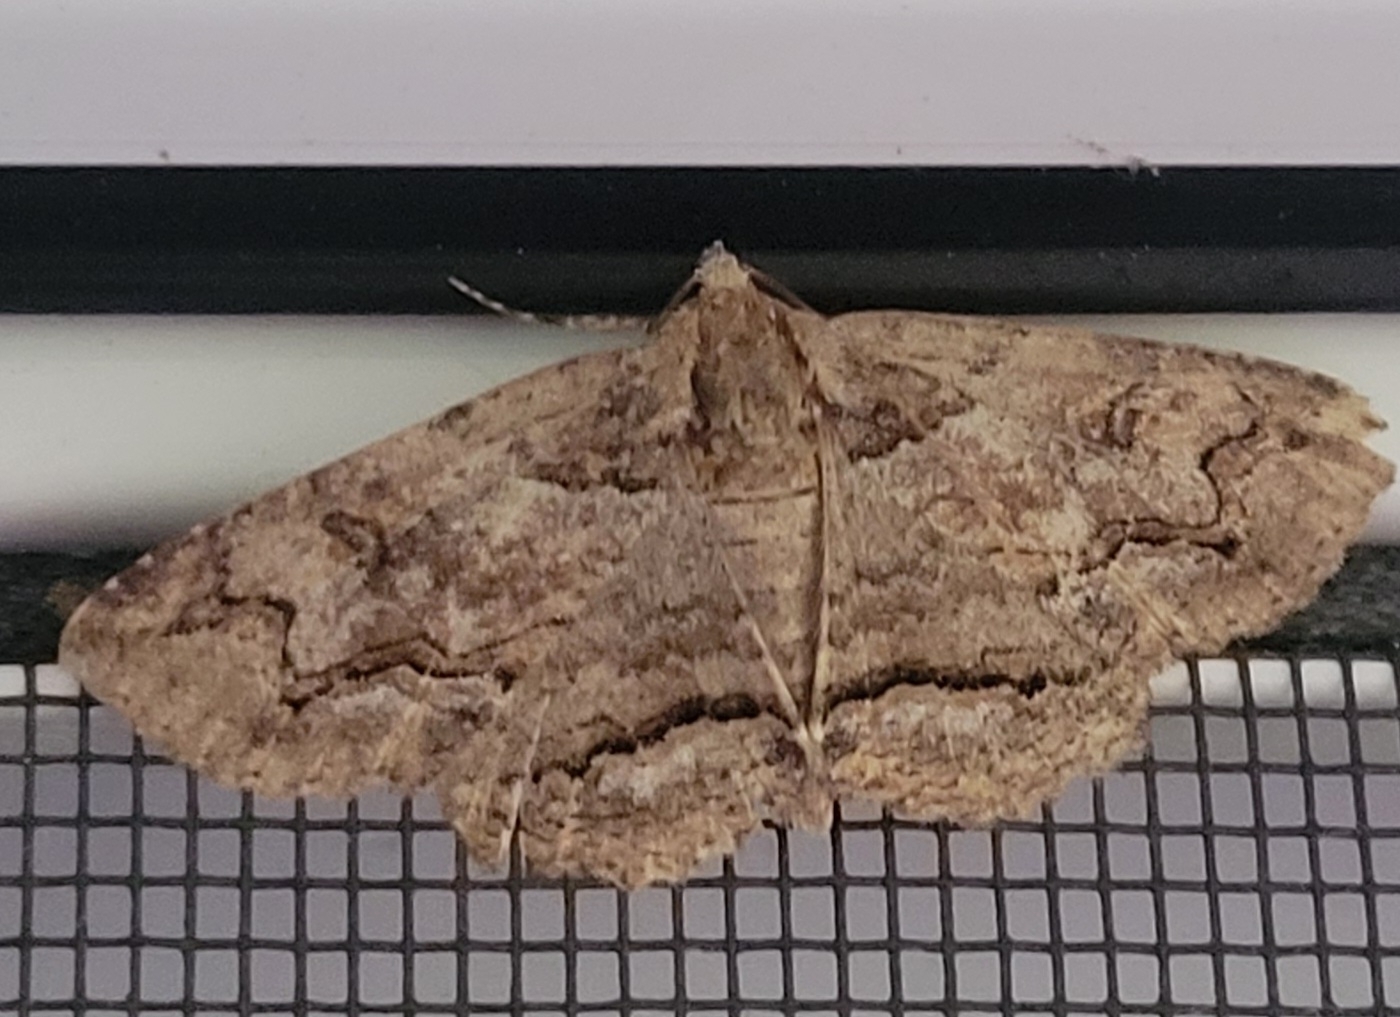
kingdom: Animalia
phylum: Arthropoda
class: Insecta
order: Lepidoptera
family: Erebidae
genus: Zale
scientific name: Zale galbanata
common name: Maple zale
